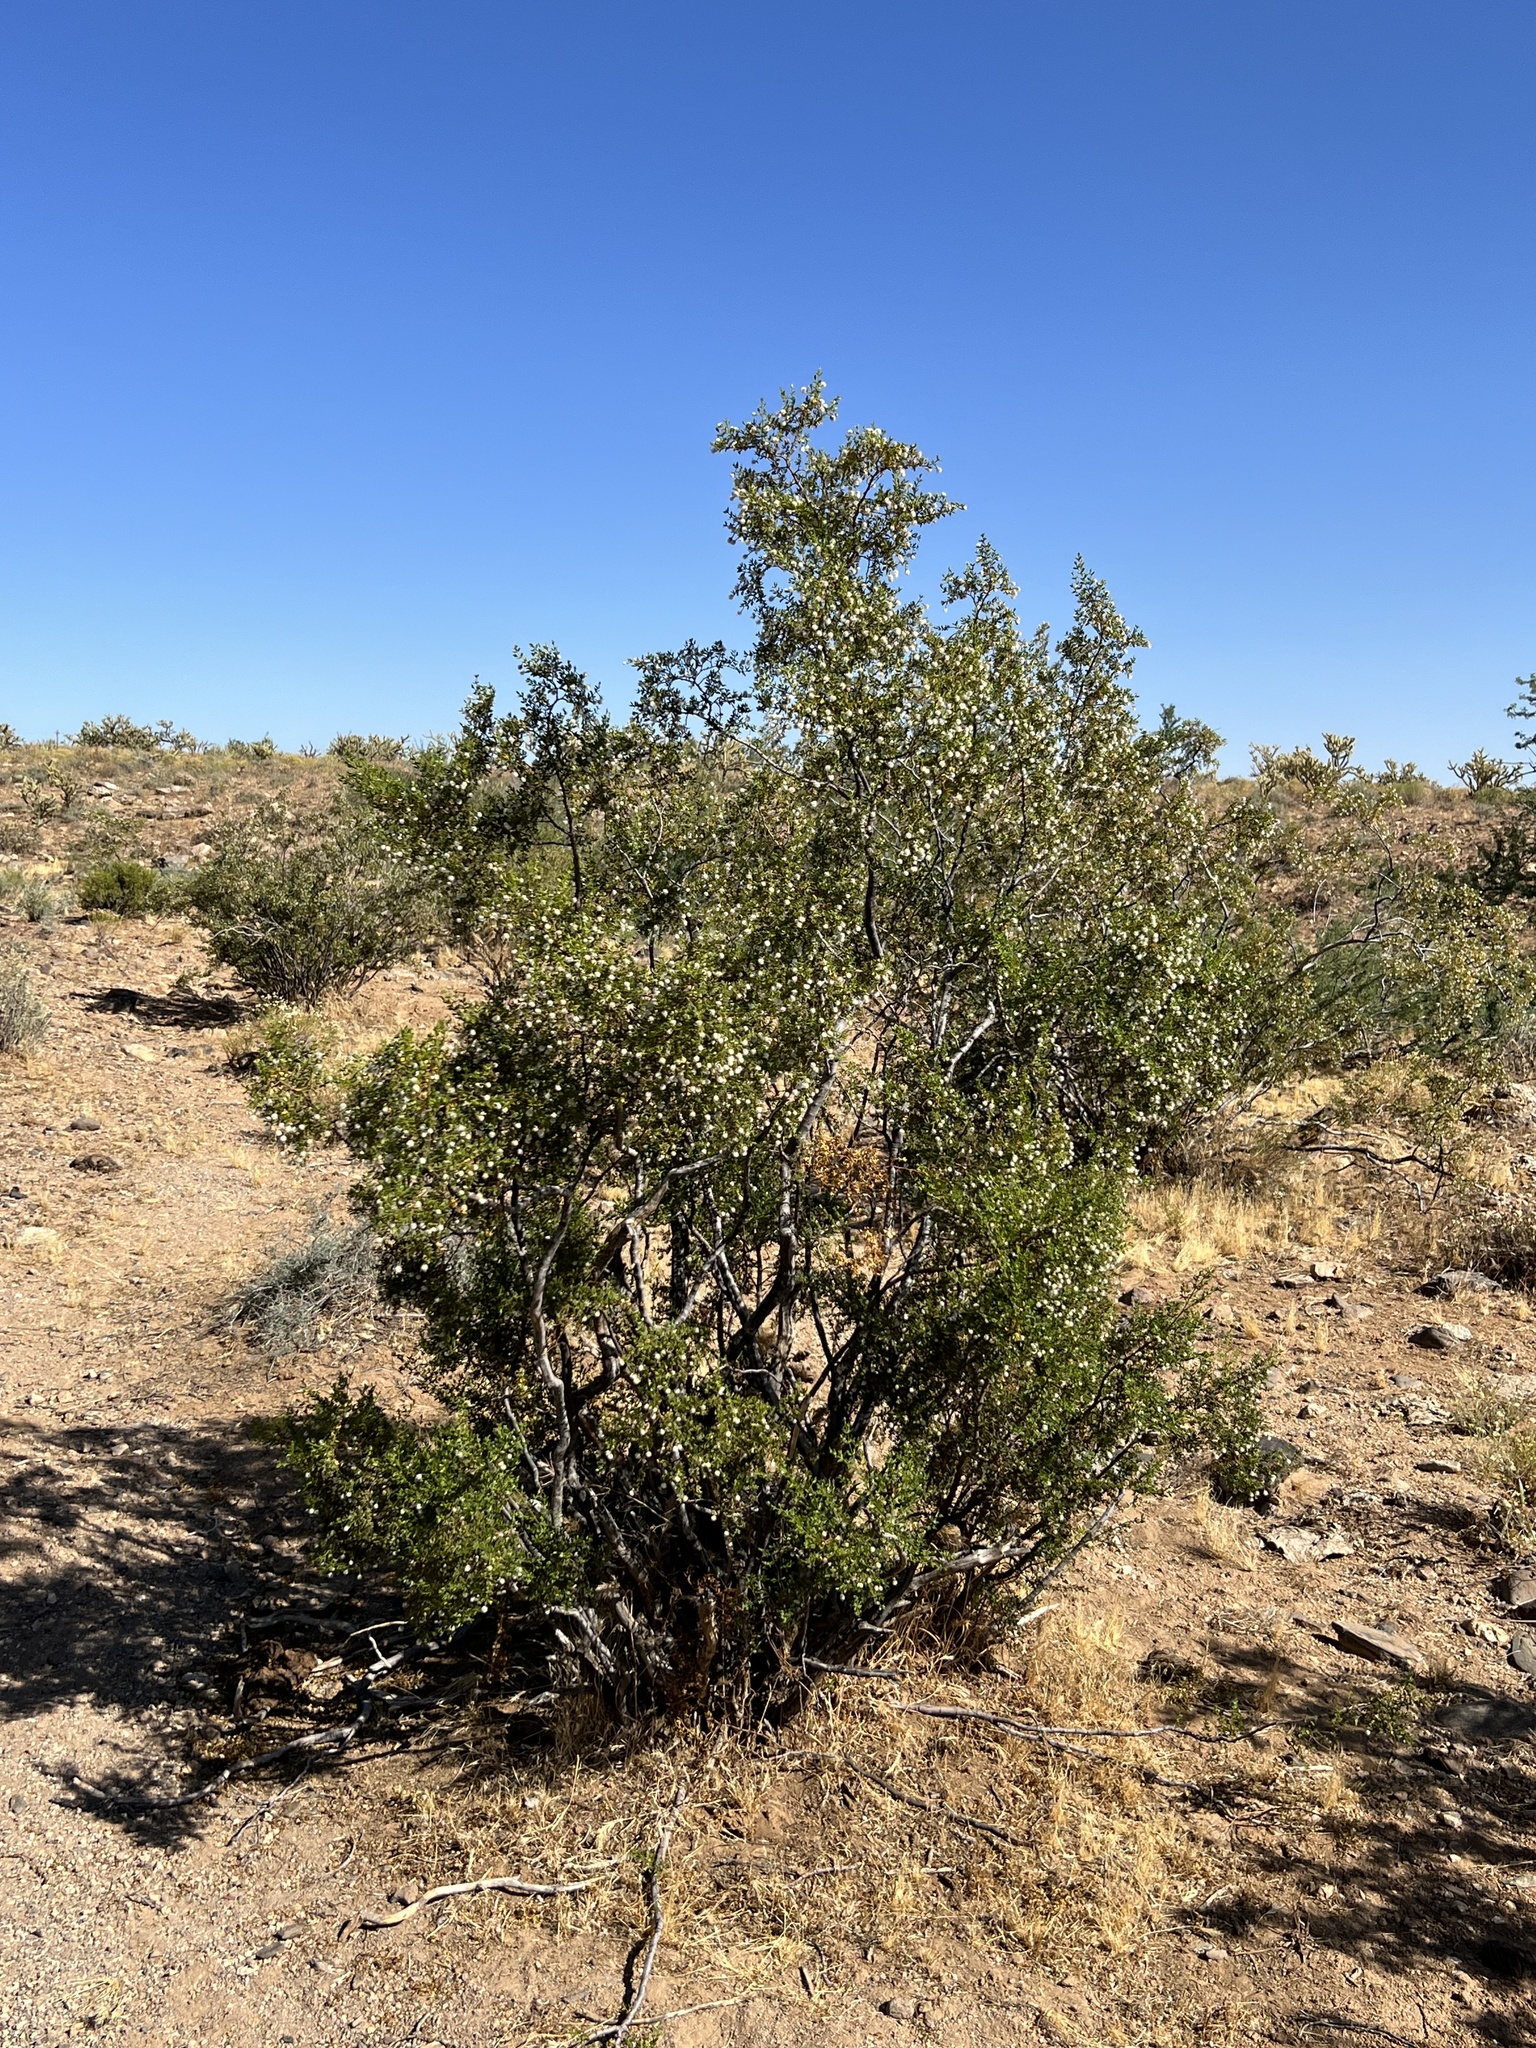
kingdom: Plantae
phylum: Tracheophyta
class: Magnoliopsida
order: Zygophyllales
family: Zygophyllaceae
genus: Larrea
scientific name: Larrea tridentata
